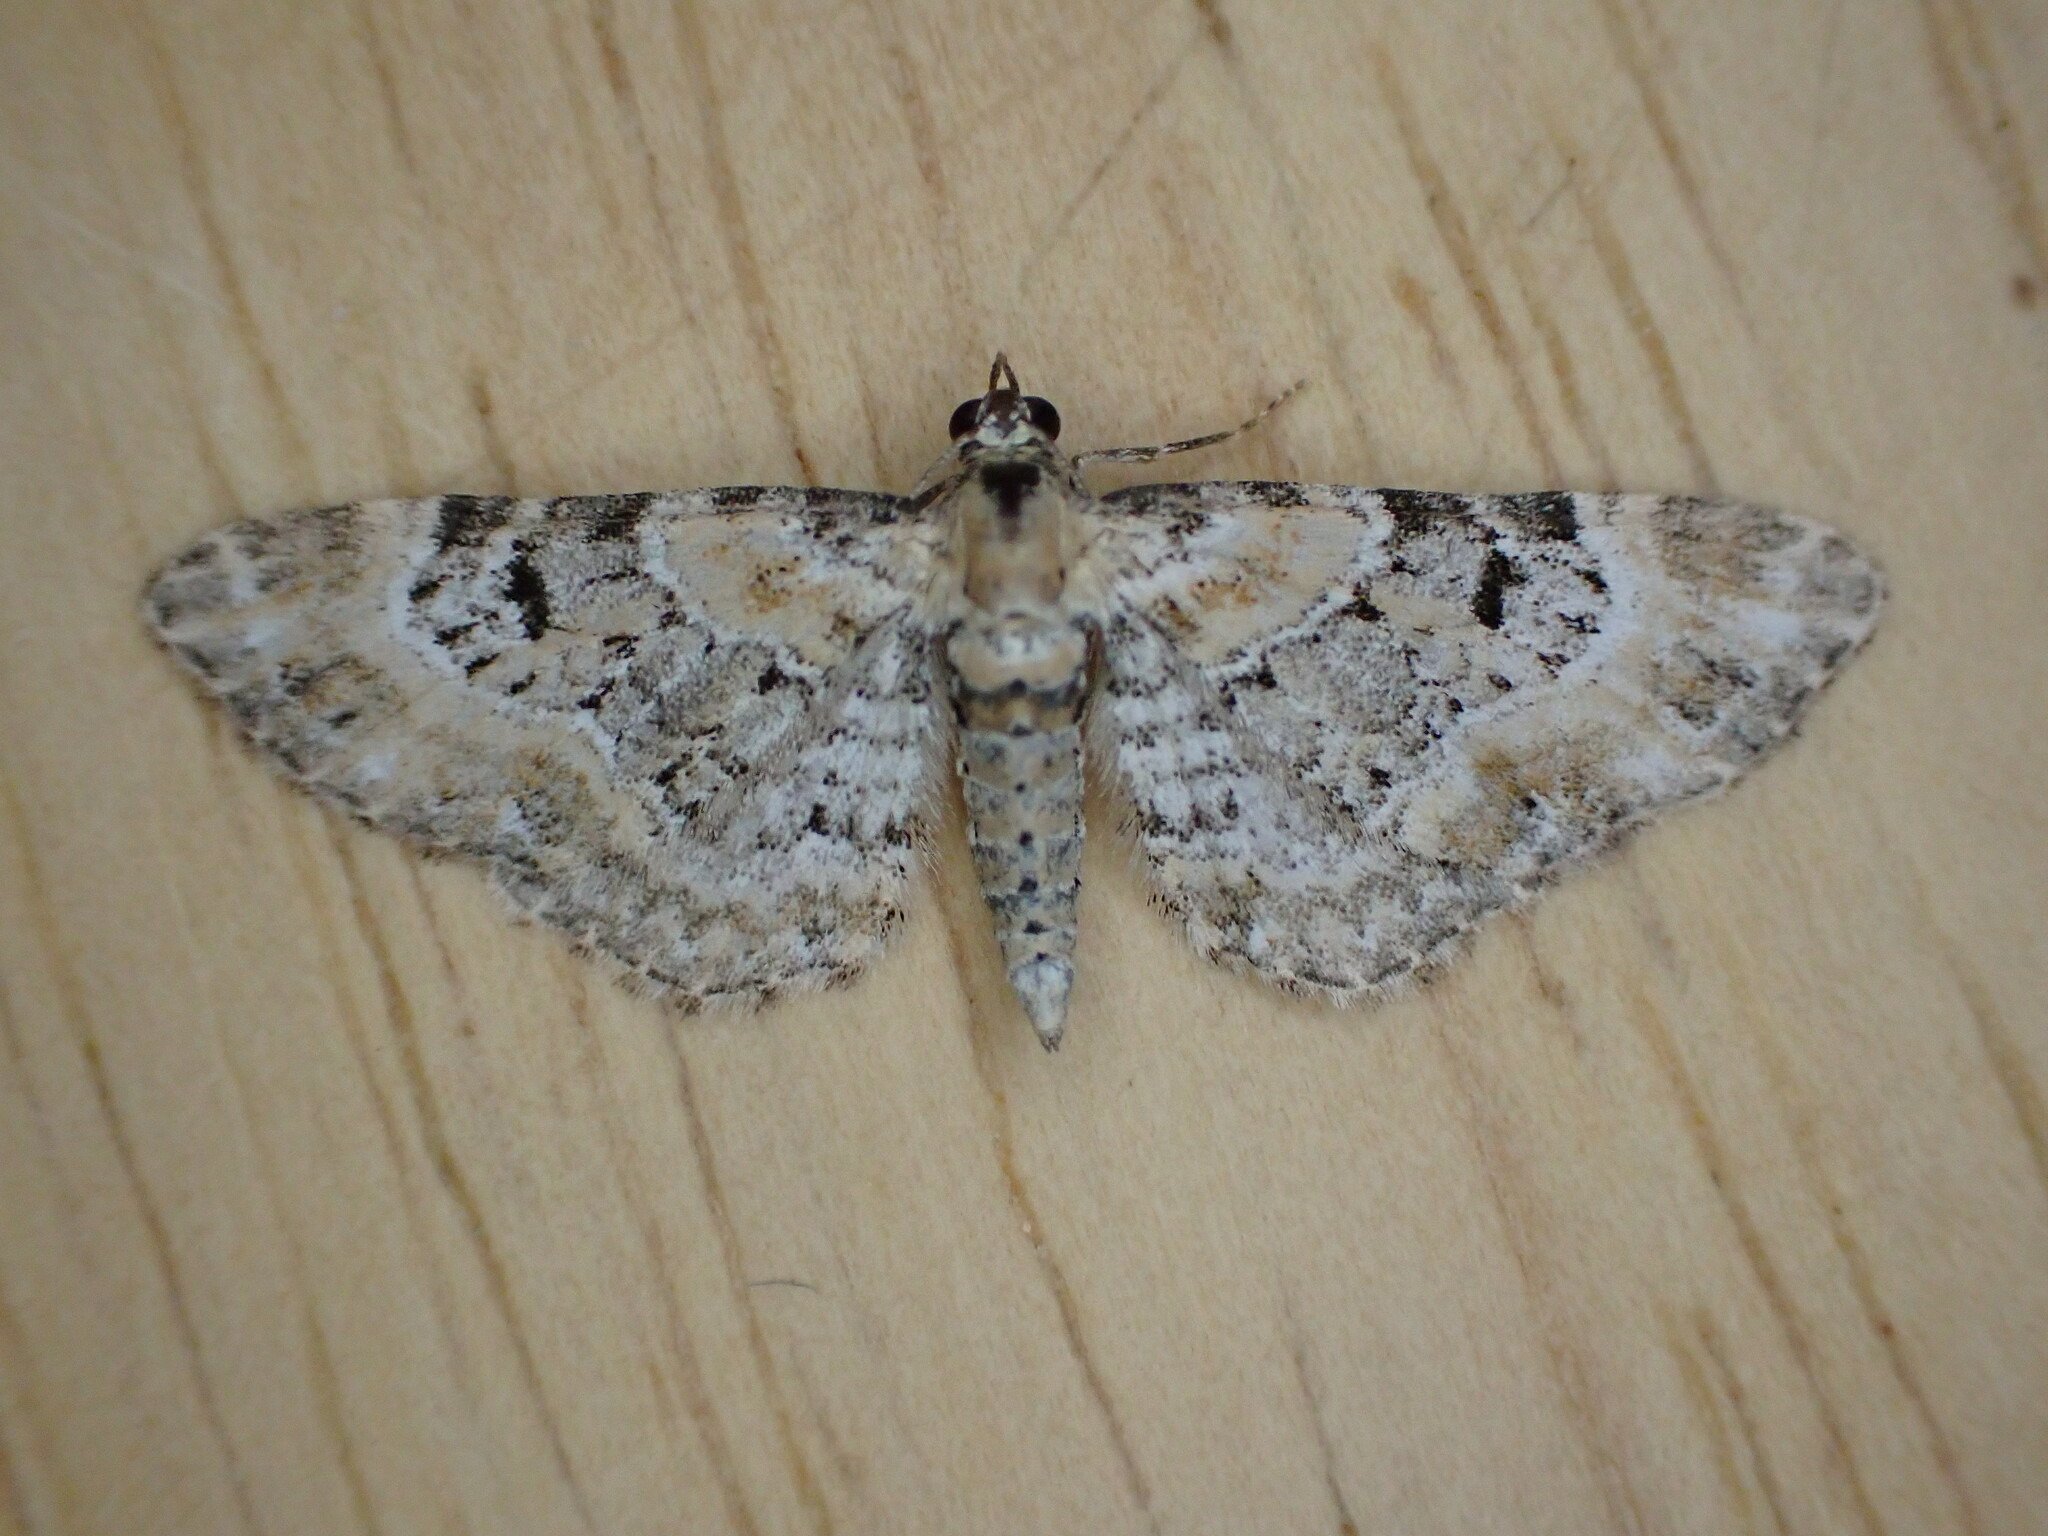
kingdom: Animalia
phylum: Arthropoda
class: Insecta
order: Lepidoptera
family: Geometridae
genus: Eupithecia
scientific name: Eupithecia pulchellata
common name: Foxglove pug
